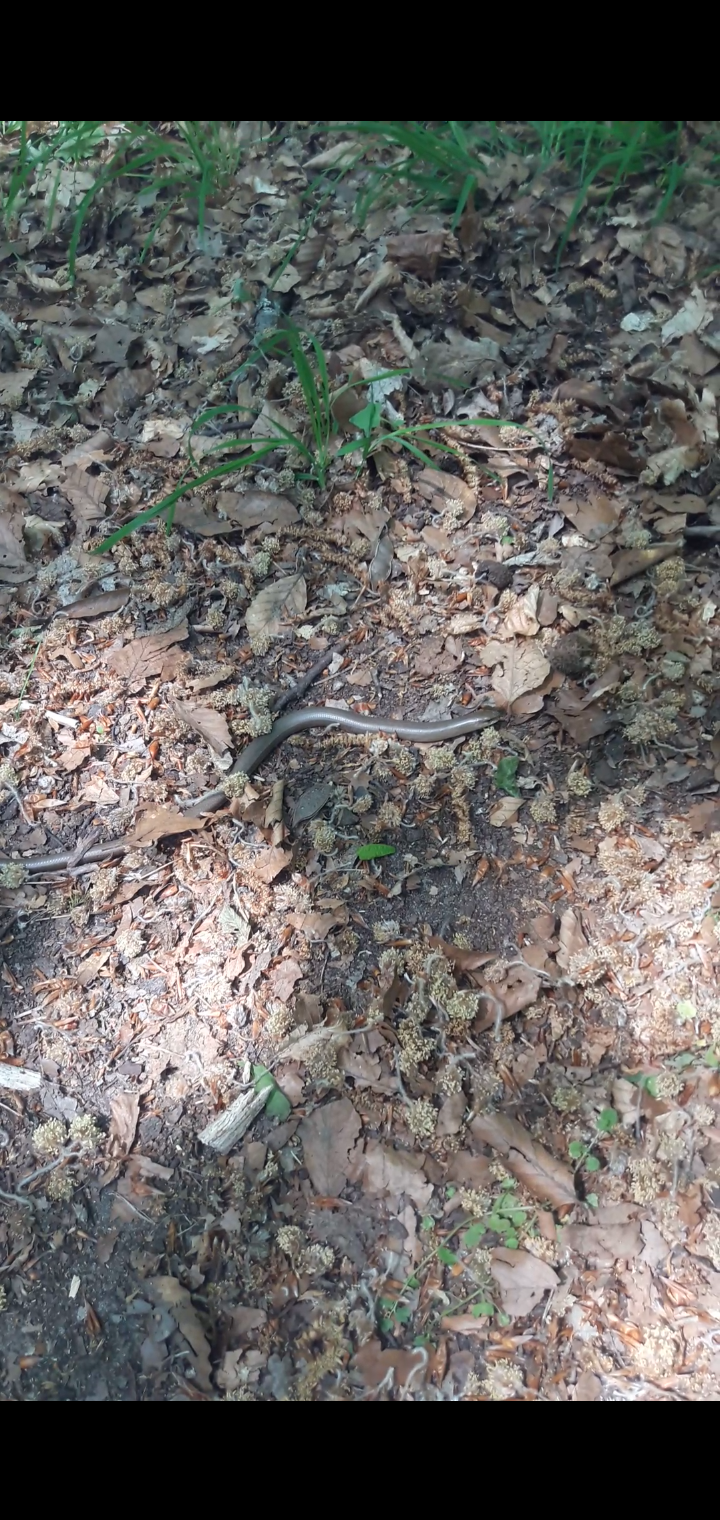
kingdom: Animalia
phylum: Chordata
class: Squamata
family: Anguidae
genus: Anguis
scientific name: Anguis fragilis
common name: Slow worm
